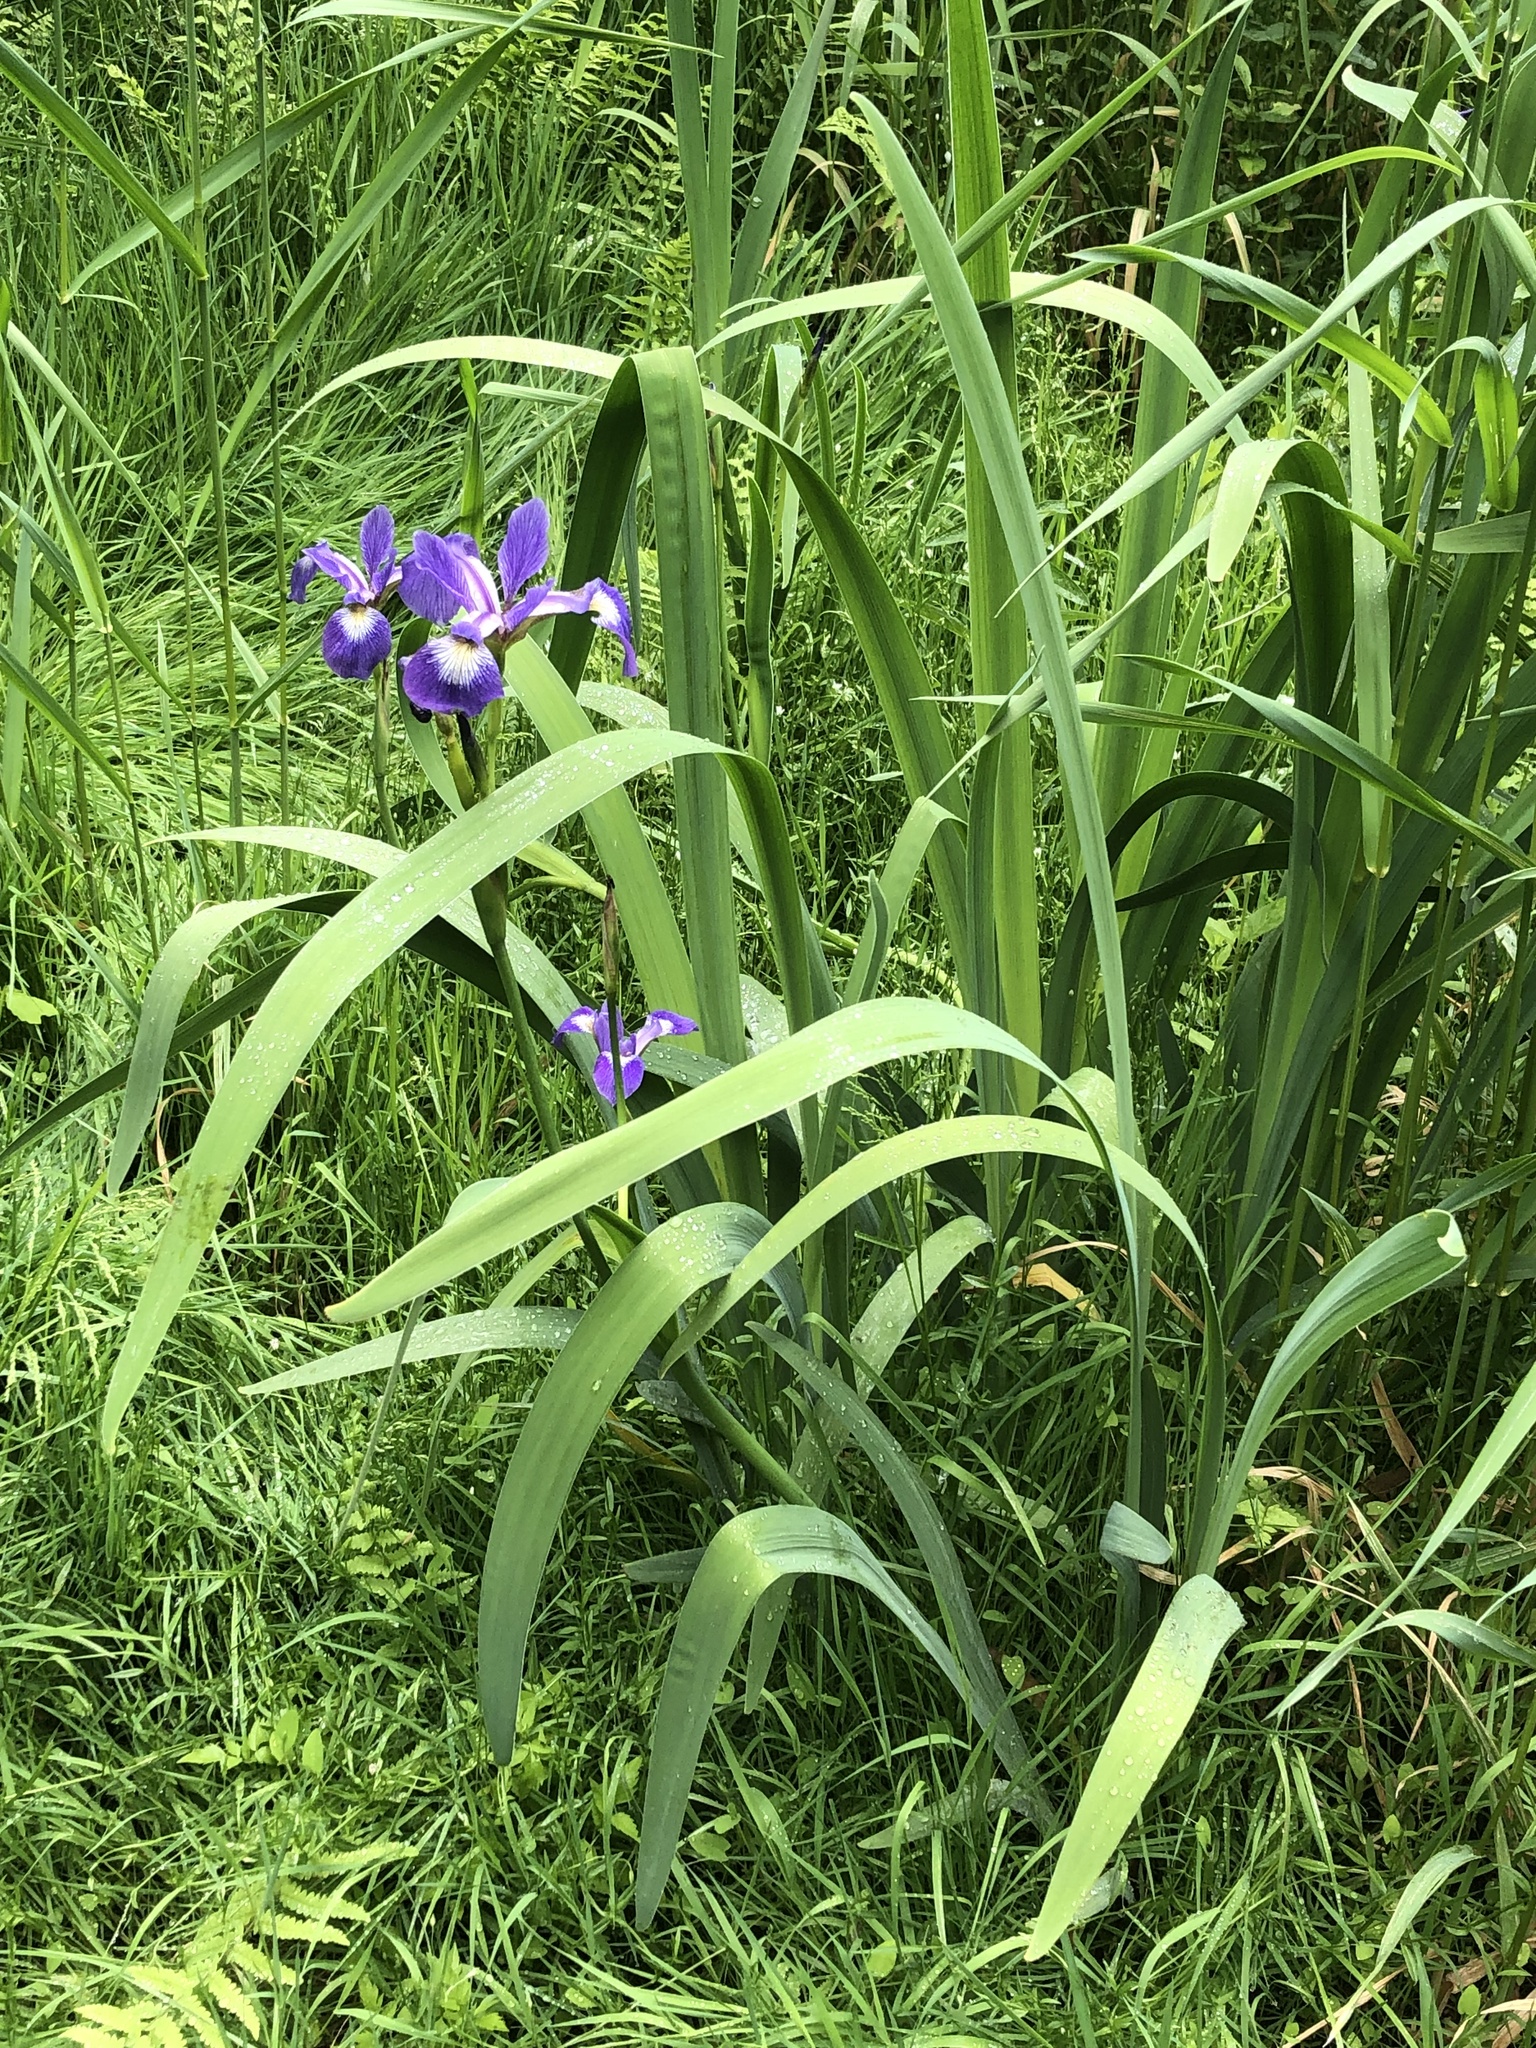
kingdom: Plantae
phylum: Tracheophyta
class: Liliopsida
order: Asparagales
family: Iridaceae
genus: Iris
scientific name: Iris versicolor
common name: Purple iris
